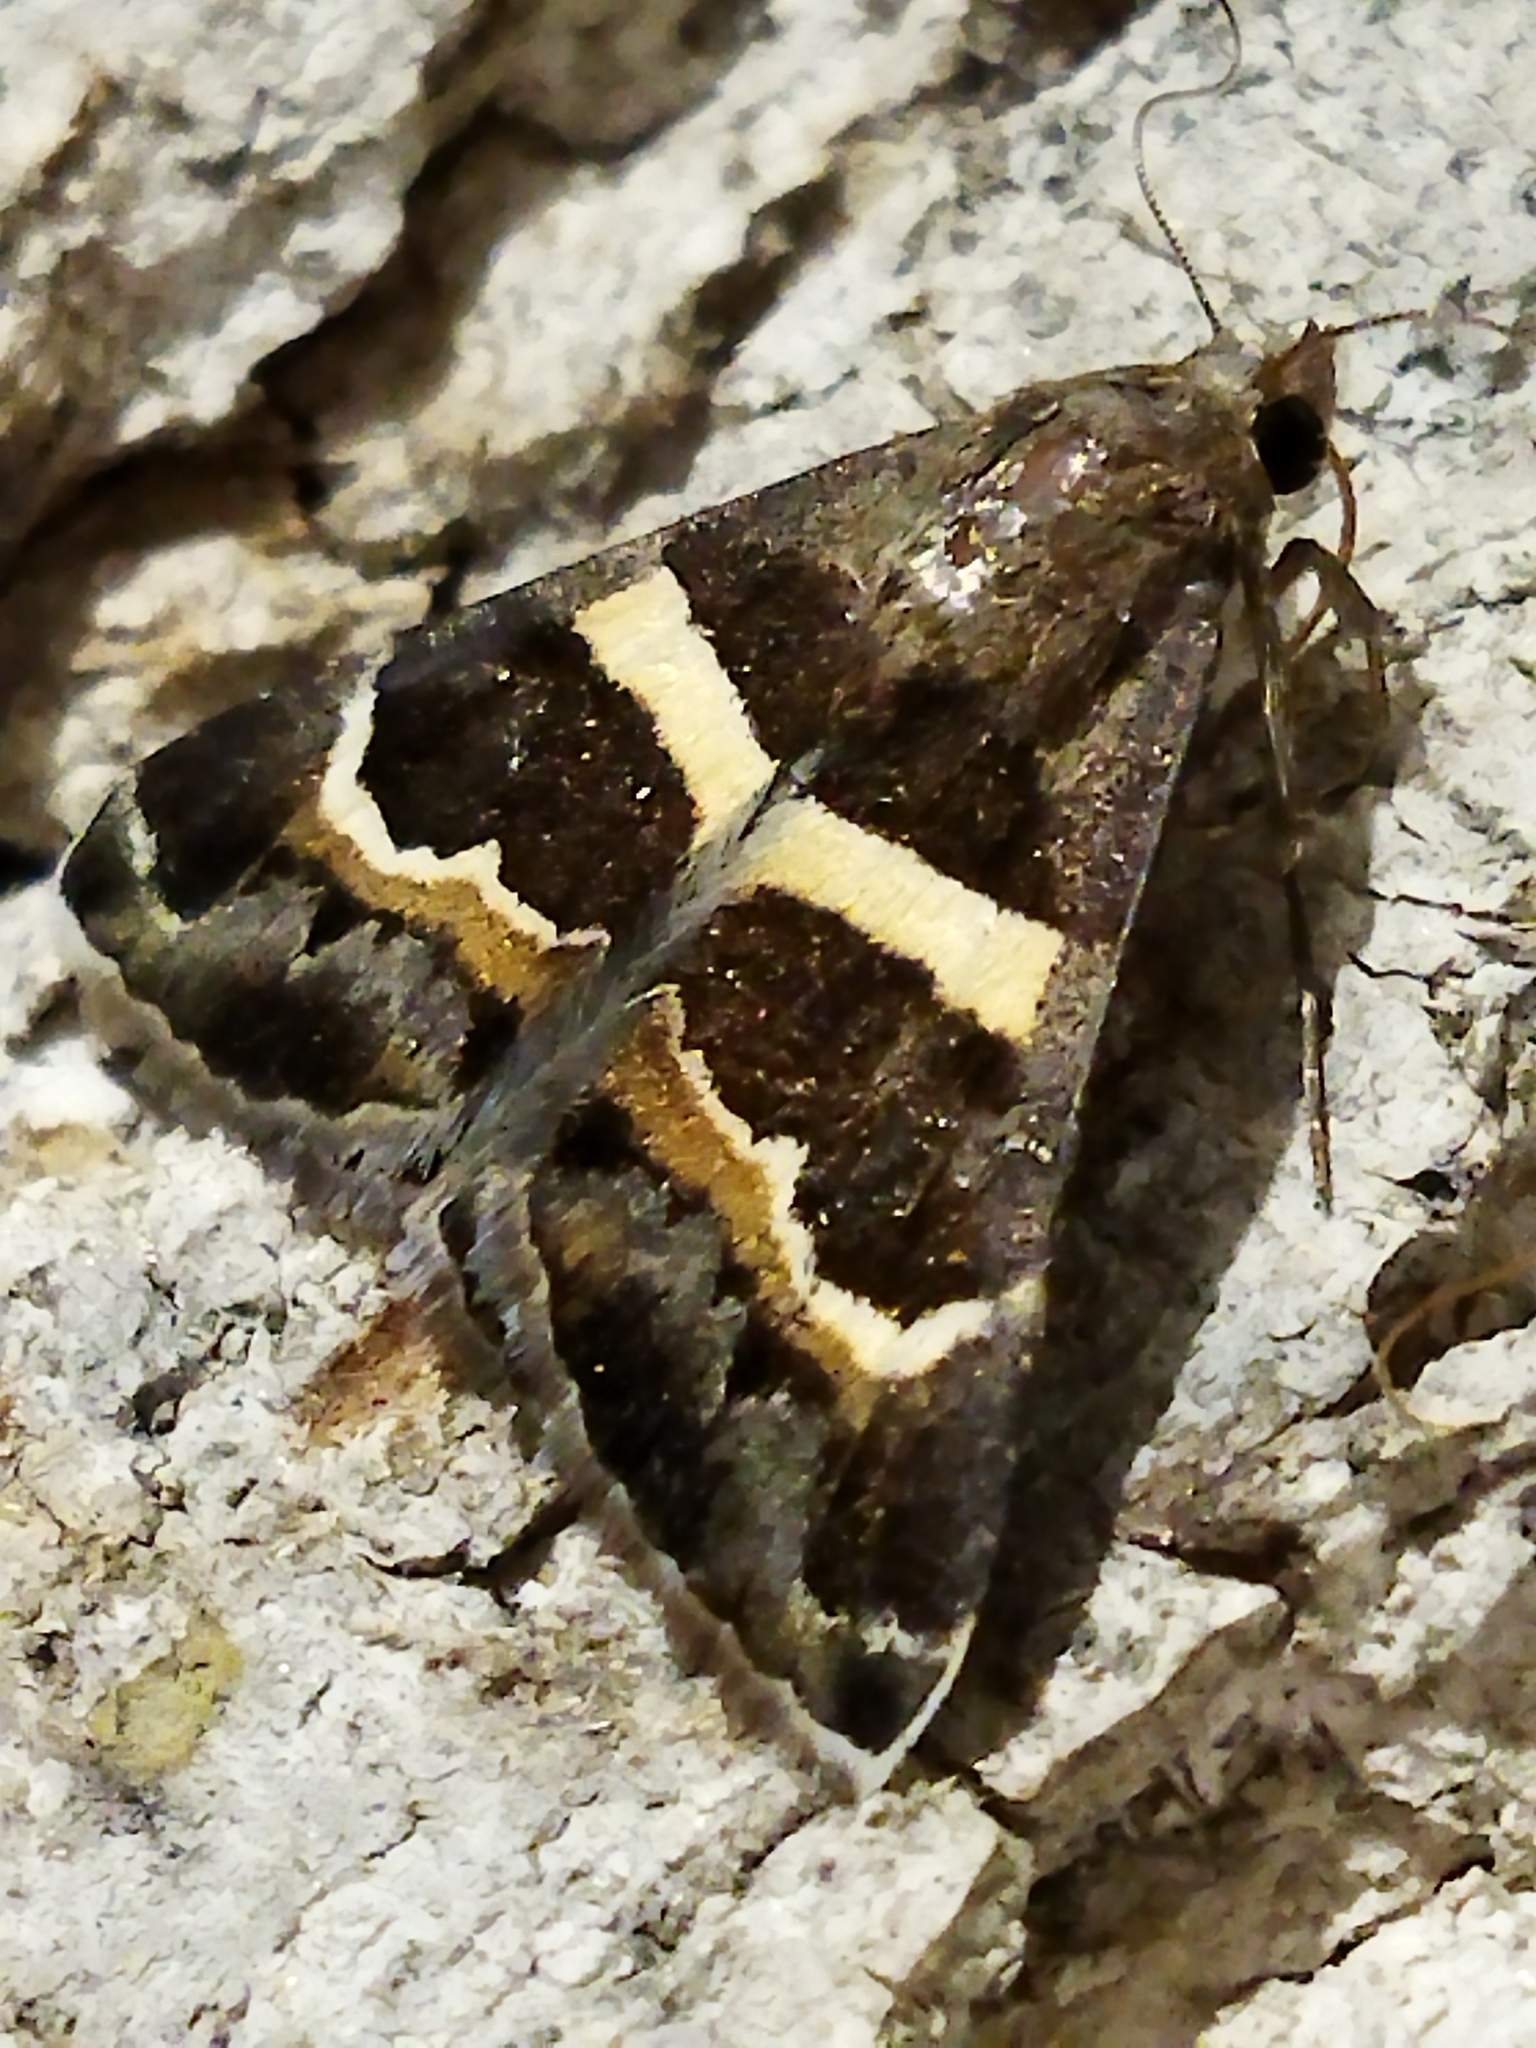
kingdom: Animalia
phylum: Arthropoda
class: Insecta
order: Lepidoptera
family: Erebidae
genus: Grammodes
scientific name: Grammodes stolida
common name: Geometrician
